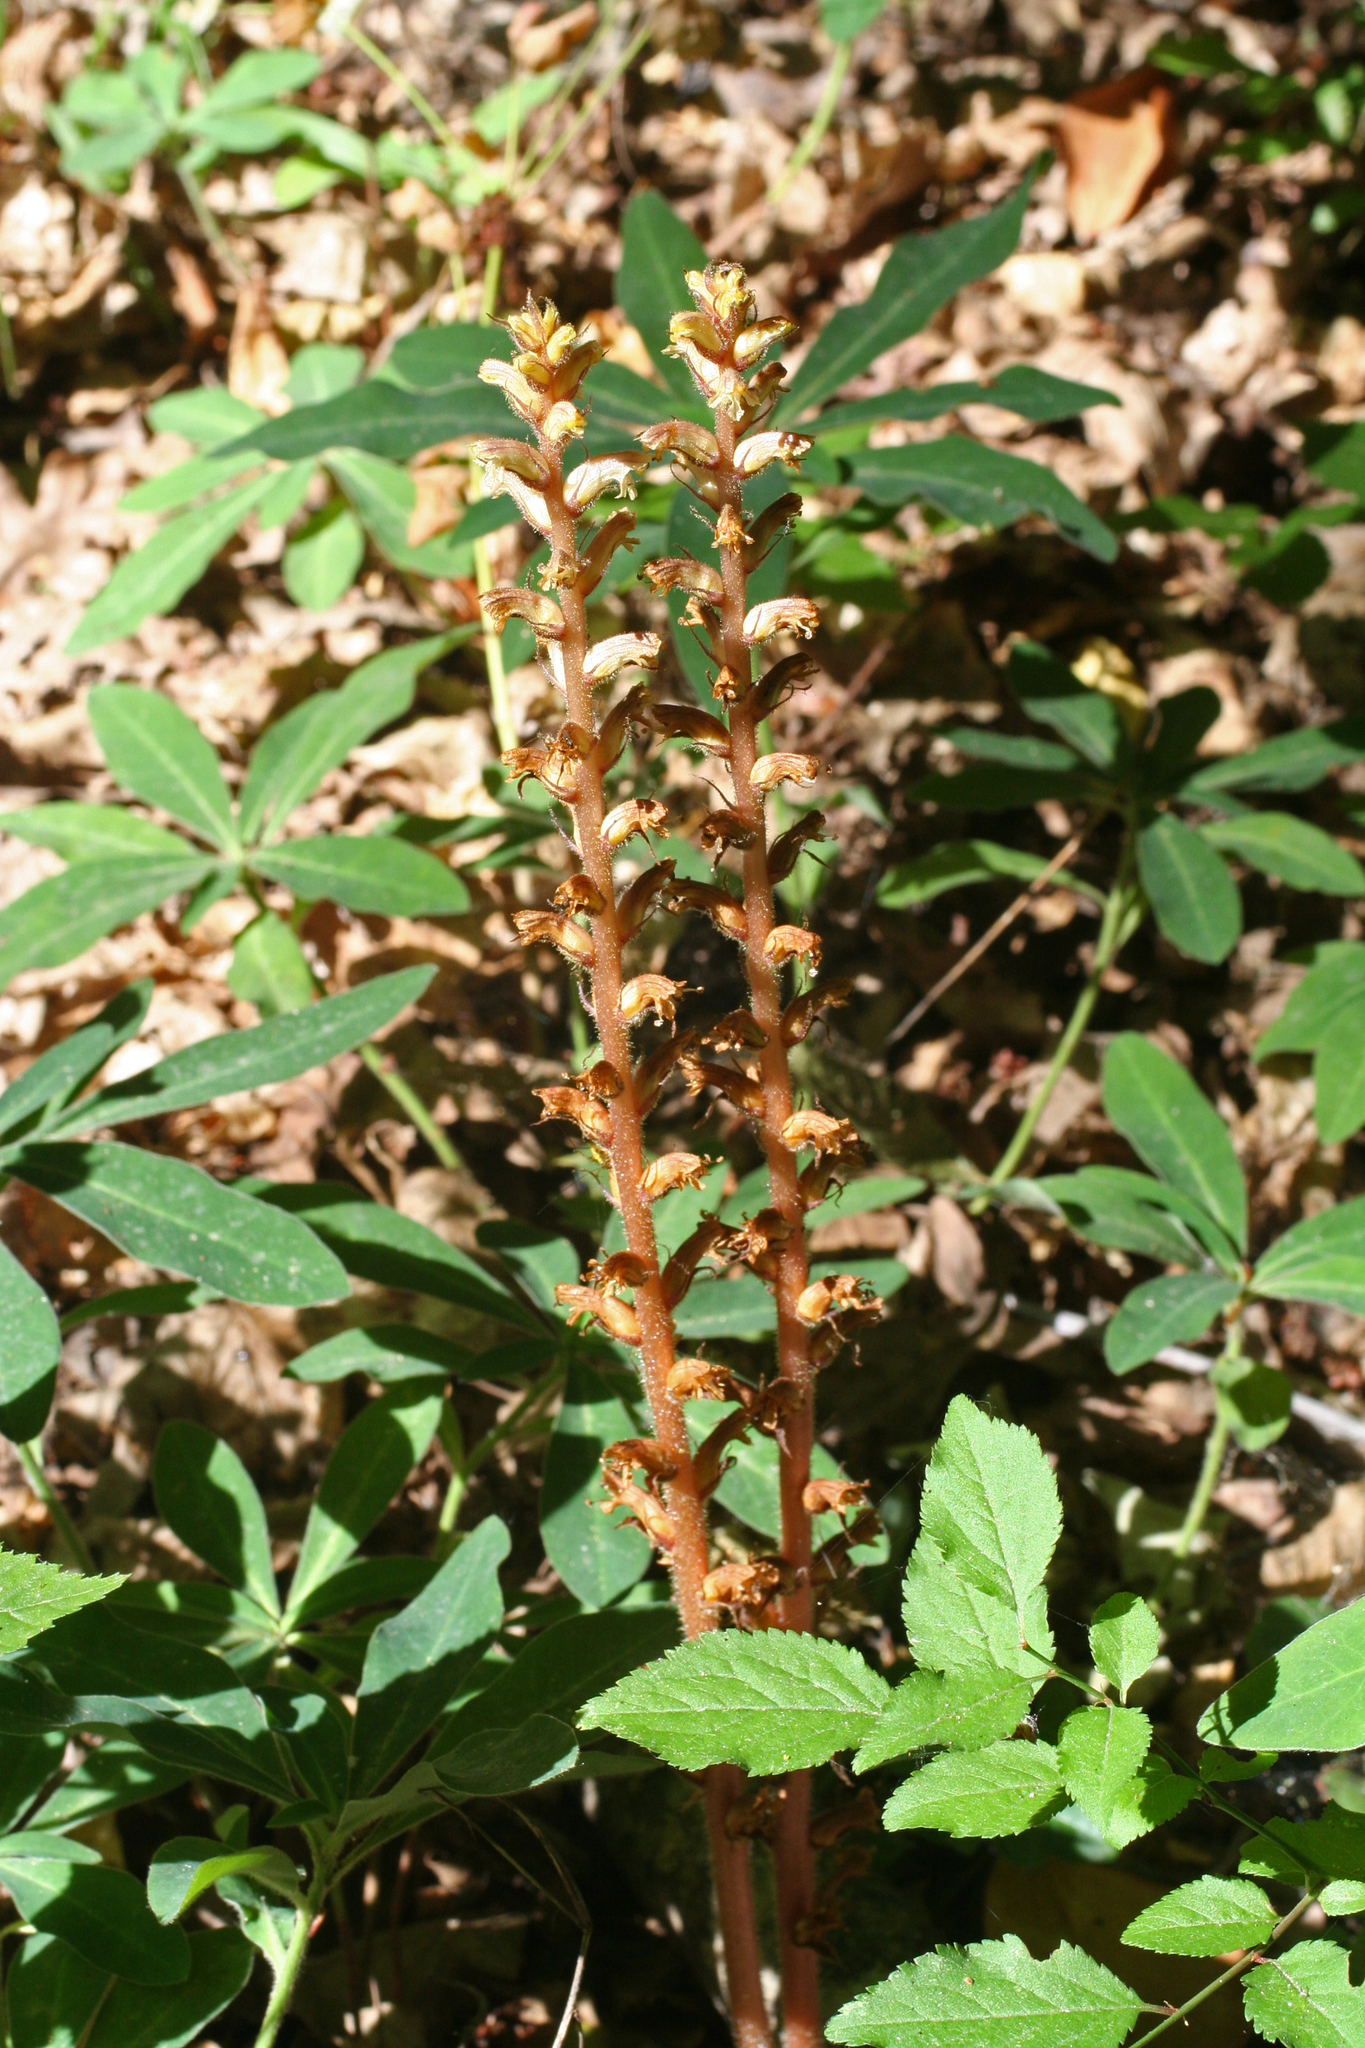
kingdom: Plantae
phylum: Tracheophyta
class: Magnoliopsida
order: Lamiales
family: Orobanchaceae
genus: Orobanche
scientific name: Orobanche hederae
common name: Ivy broomrape
